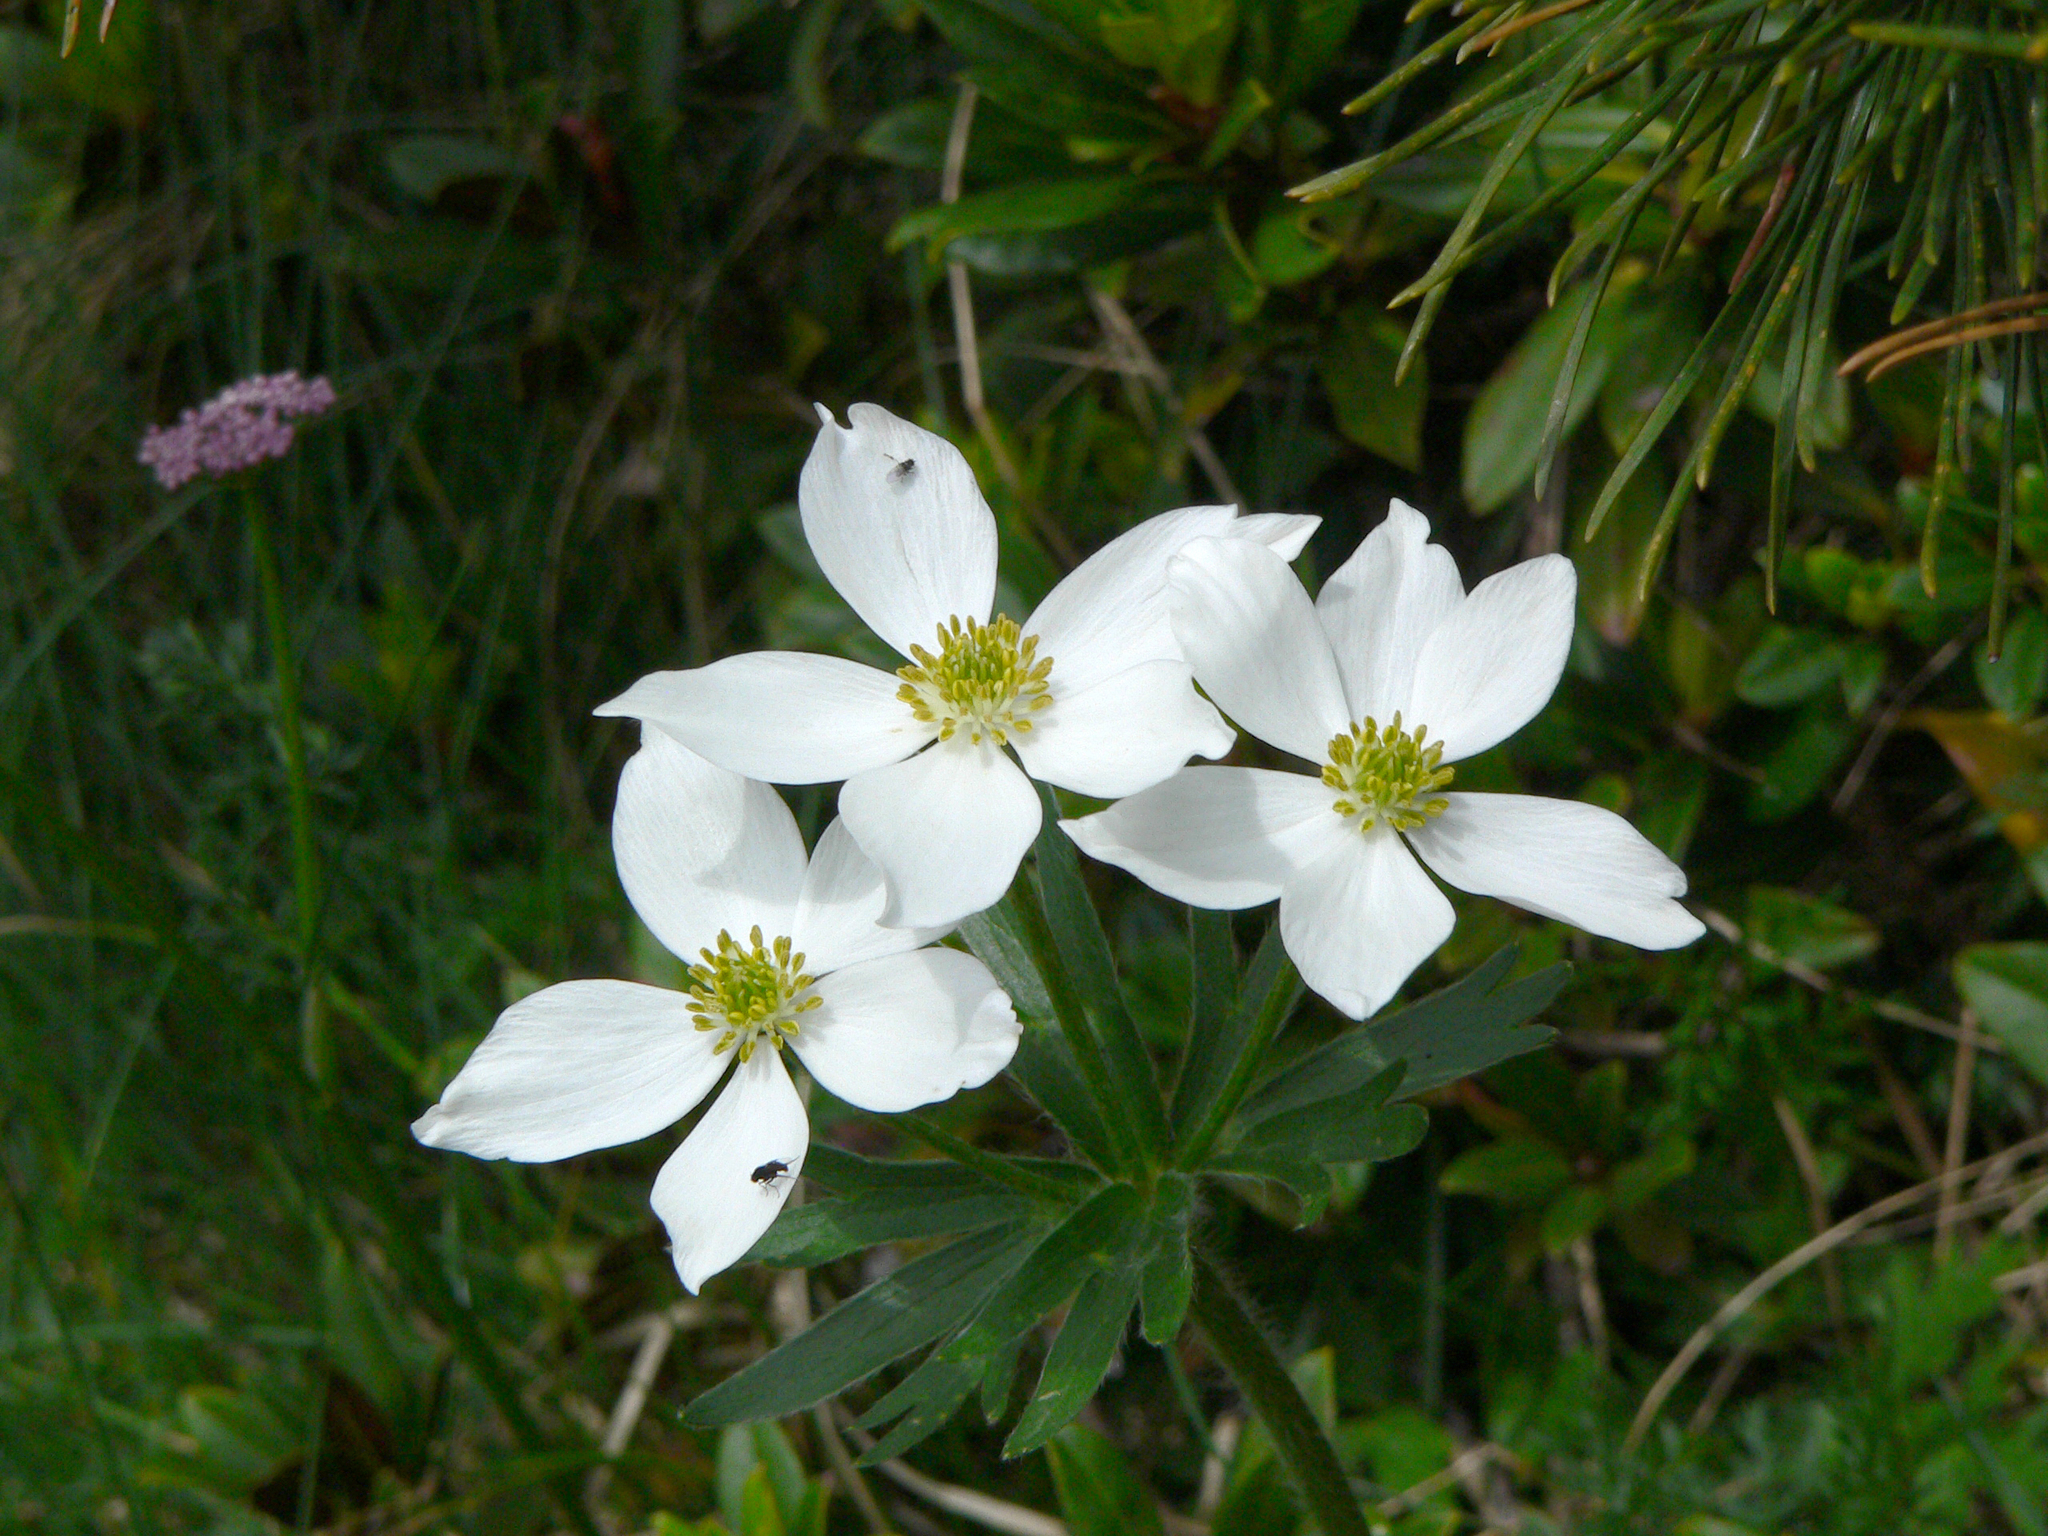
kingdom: Plantae
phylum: Tracheophyta
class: Magnoliopsida
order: Ranunculales
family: Ranunculaceae
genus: Anemonastrum
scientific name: Anemonastrum narcissiflorum
